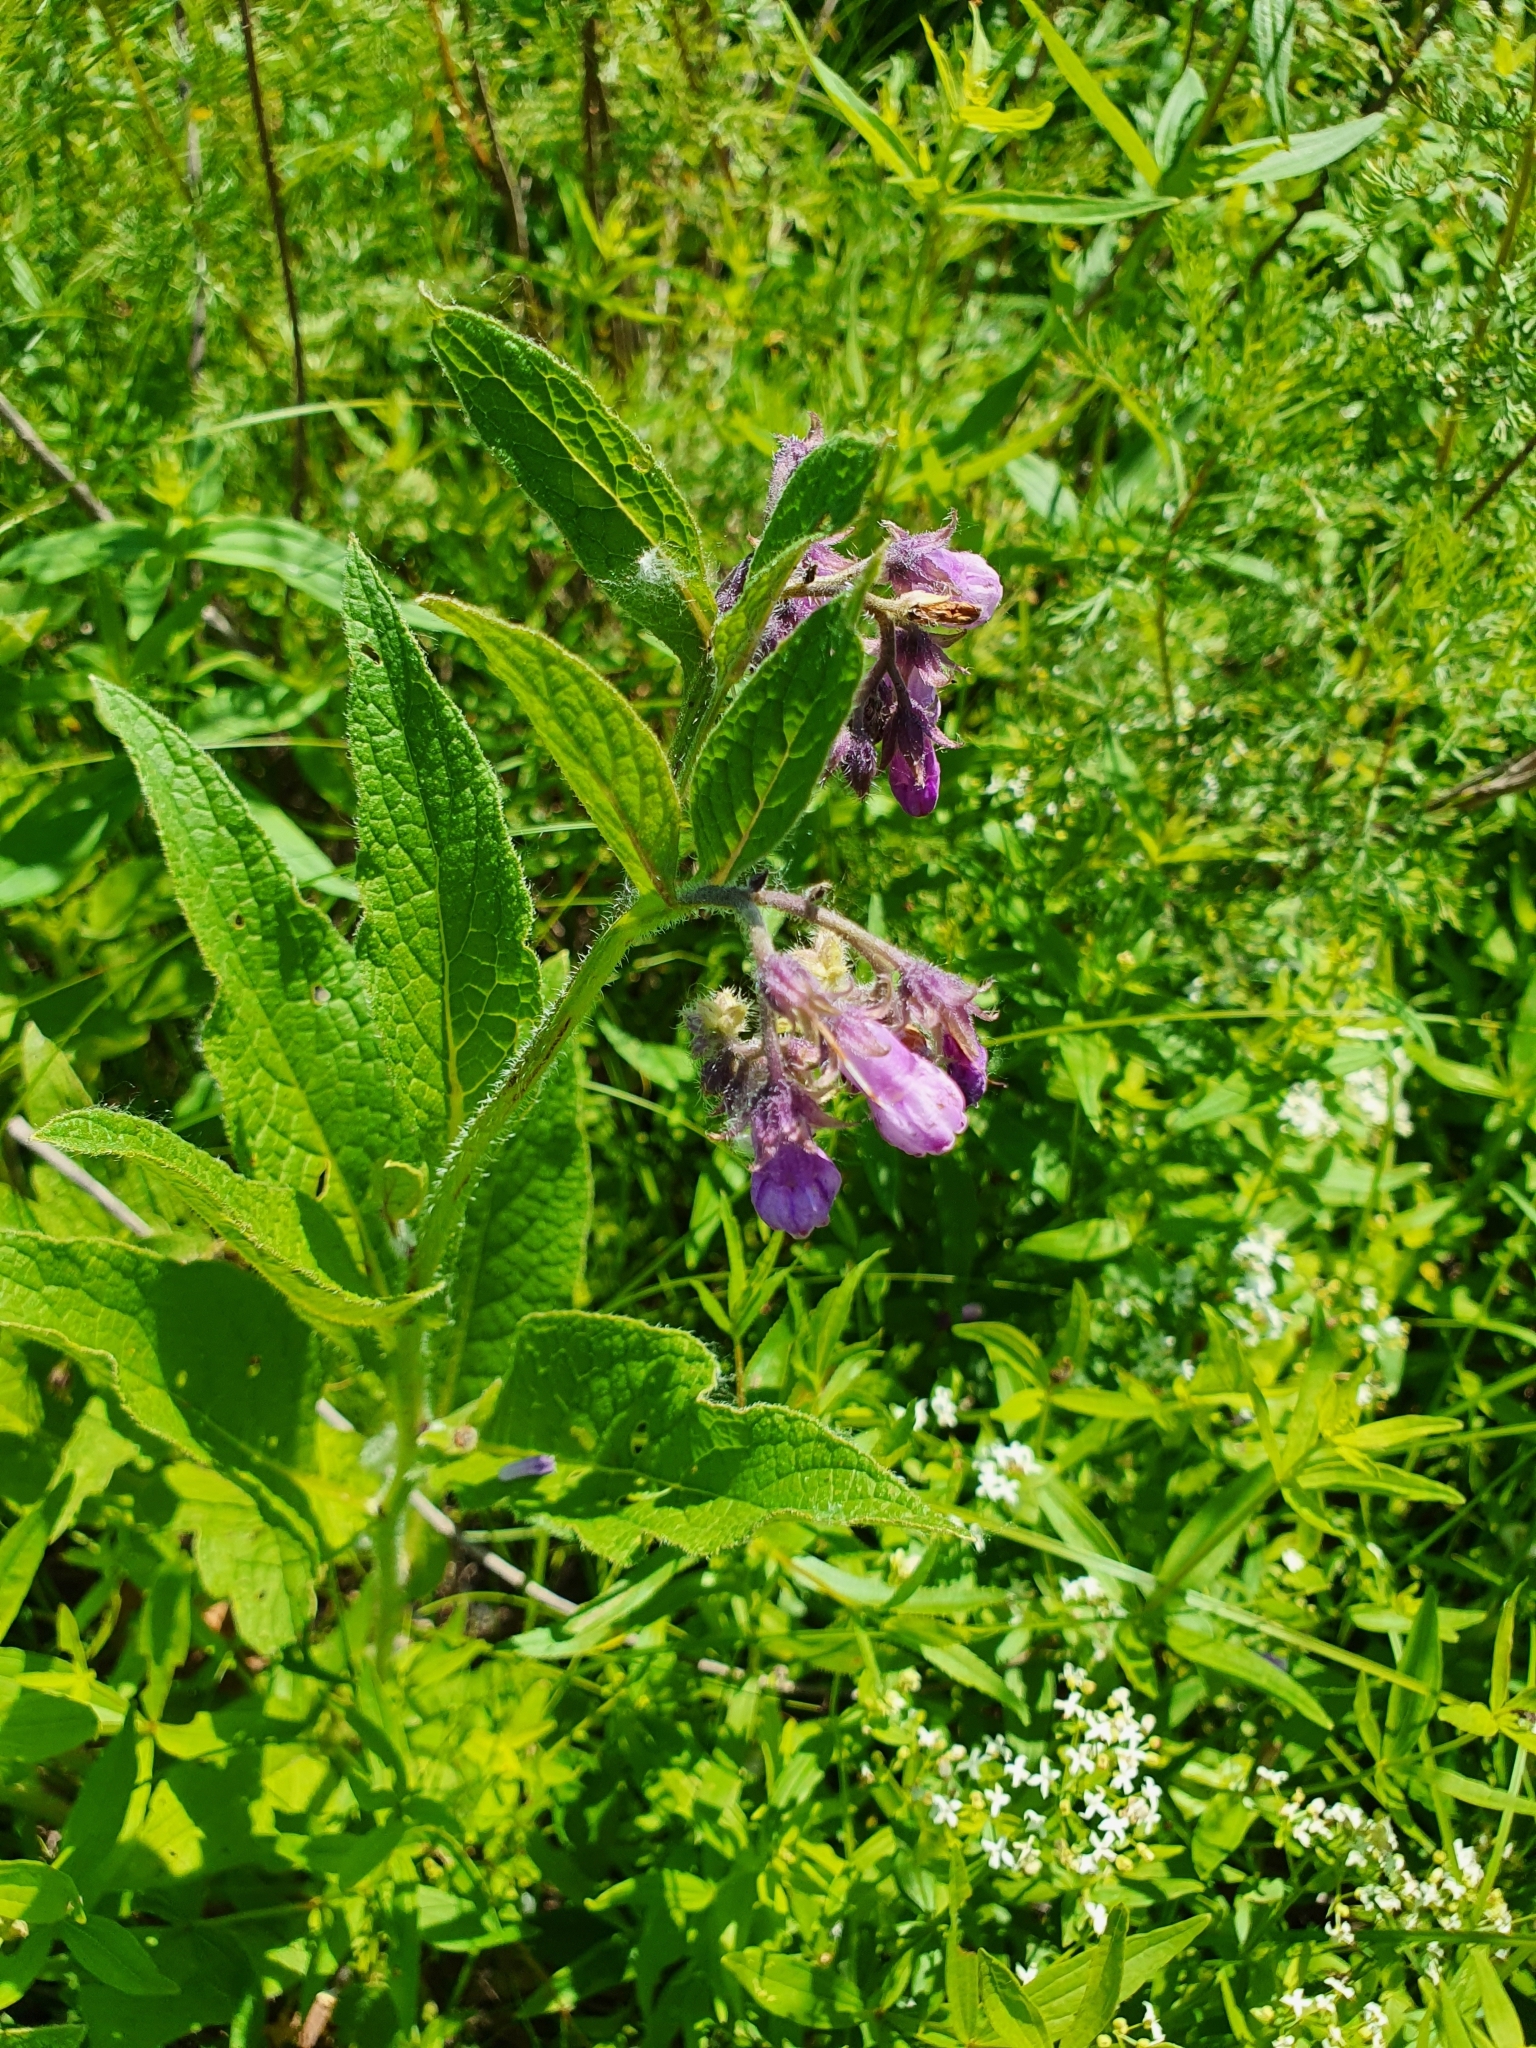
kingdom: Plantae
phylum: Tracheophyta
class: Magnoliopsida
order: Boraginales
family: Boraginaceae
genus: Symphytum
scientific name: Symphytum officinale
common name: Common comfrey
